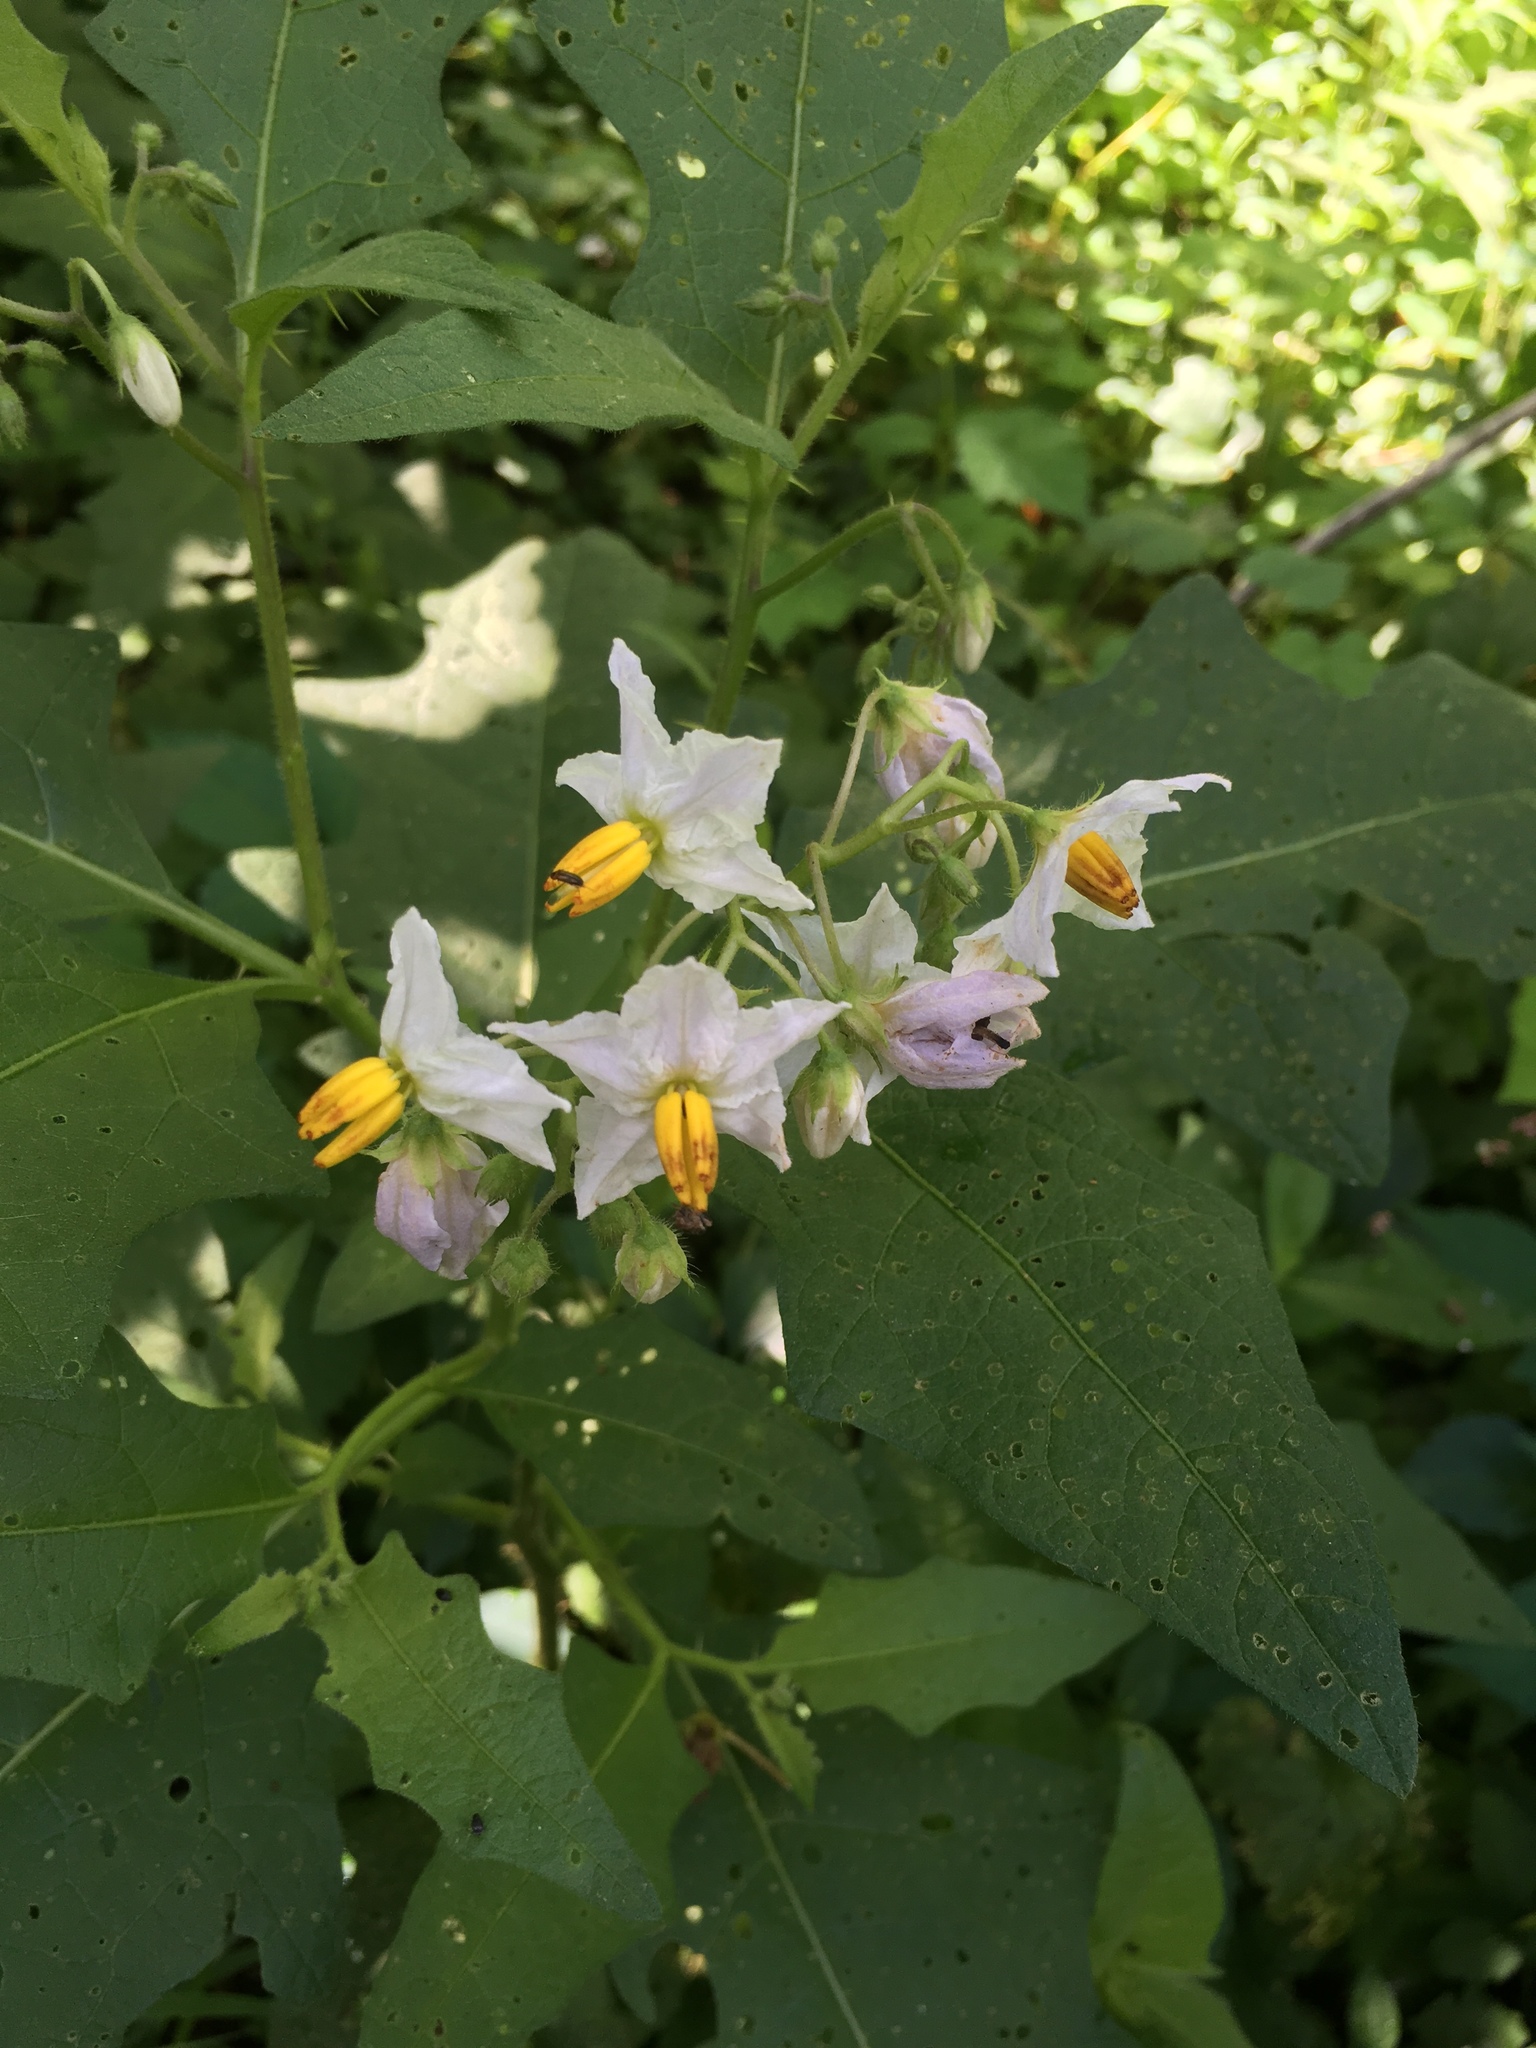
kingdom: Plantae
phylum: Tracheophyta
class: Magnoliopsida
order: Solanales
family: Solanaceae
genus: Solanum
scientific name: Solanum carolinense
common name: Horse-nettle
